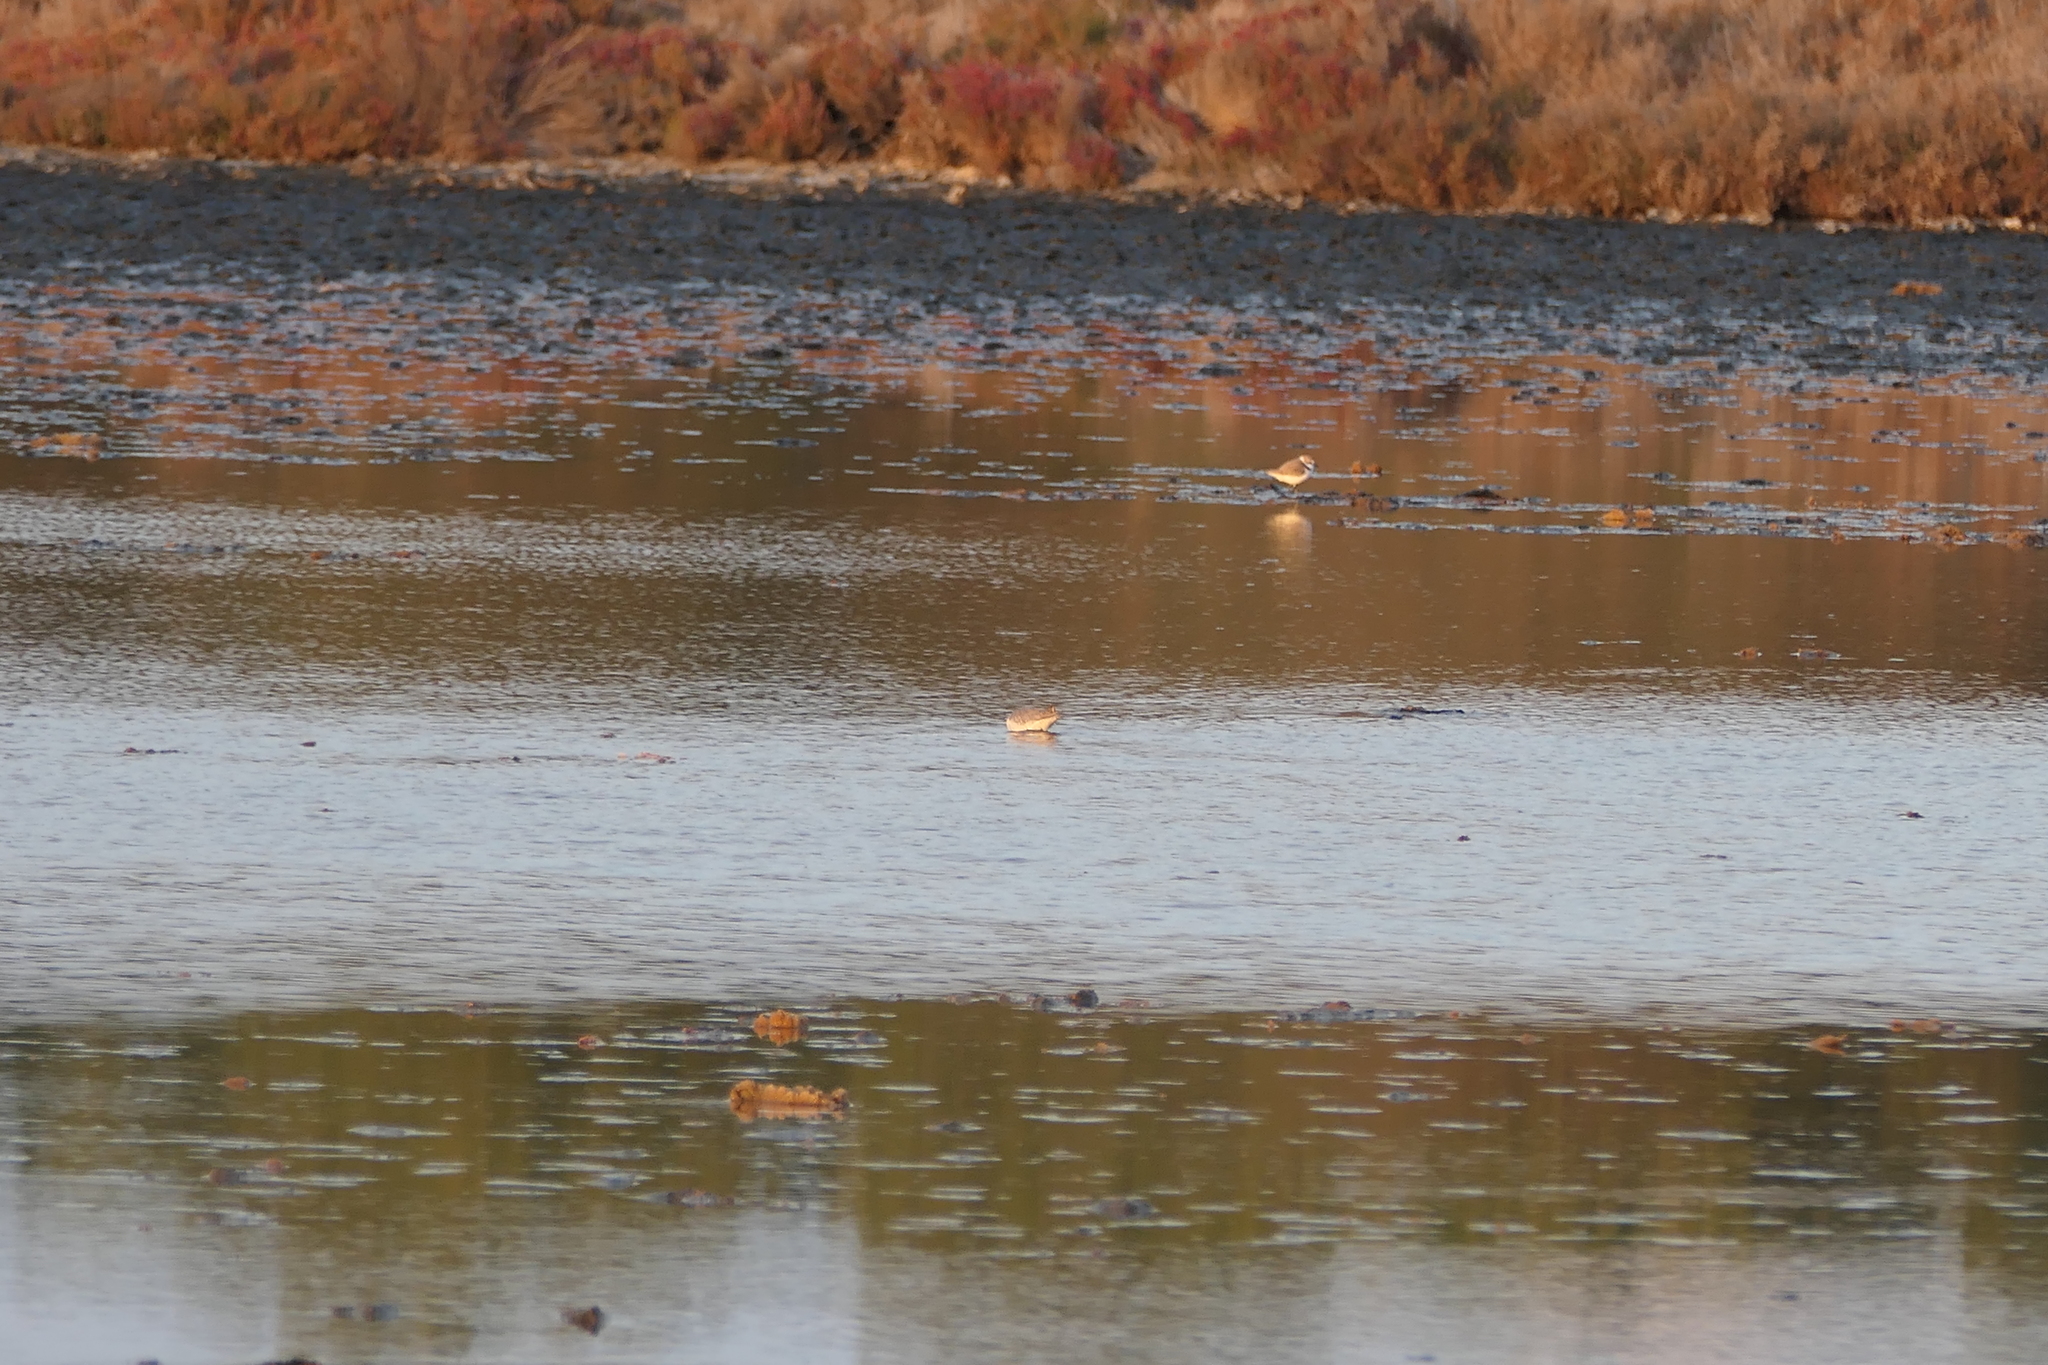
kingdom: Animalia
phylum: Chordata
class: Aves
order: Charadriiformes
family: Charadriidae
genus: Charadrius
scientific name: Charadrius alexandrinus
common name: Kentish plover
